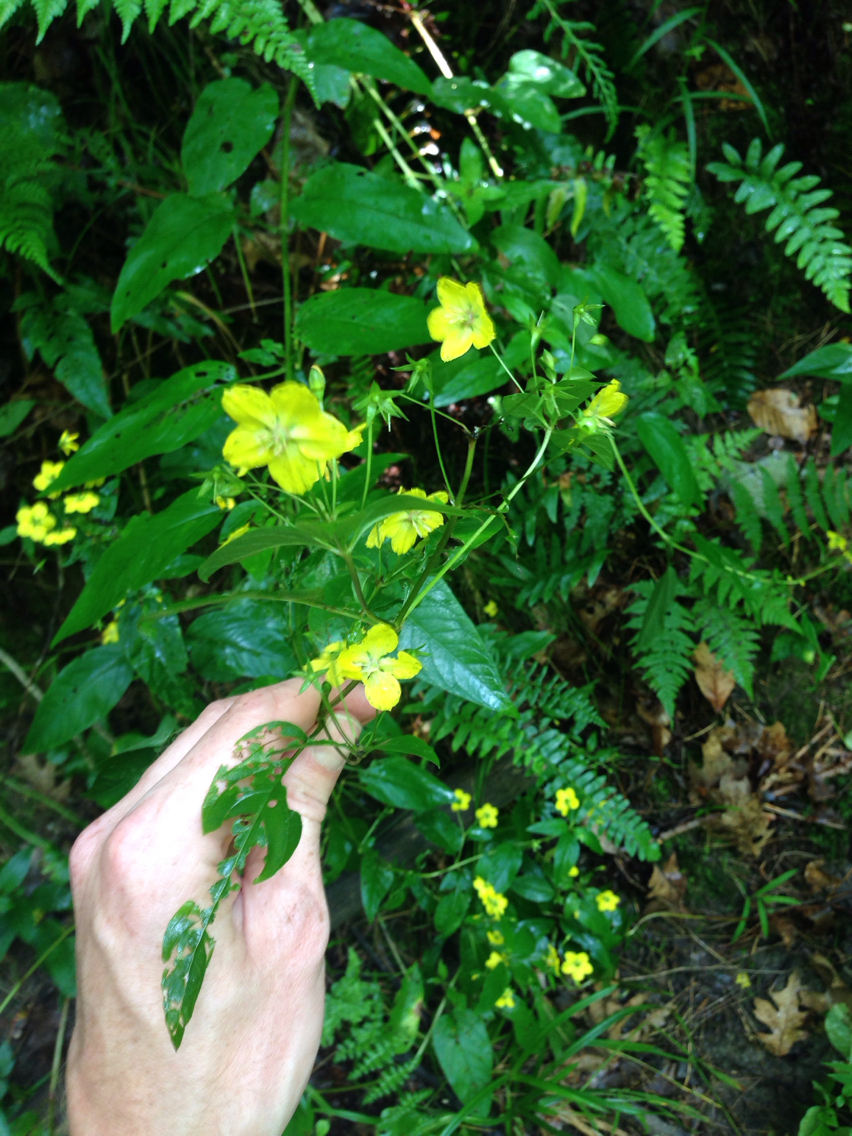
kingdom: Plantae
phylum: Tracheophyta
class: Magnoliopsida
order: Ericales
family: Primulaceae
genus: Lysimachia
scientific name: Lysimachia ciliata
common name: Fringed loosestrife
